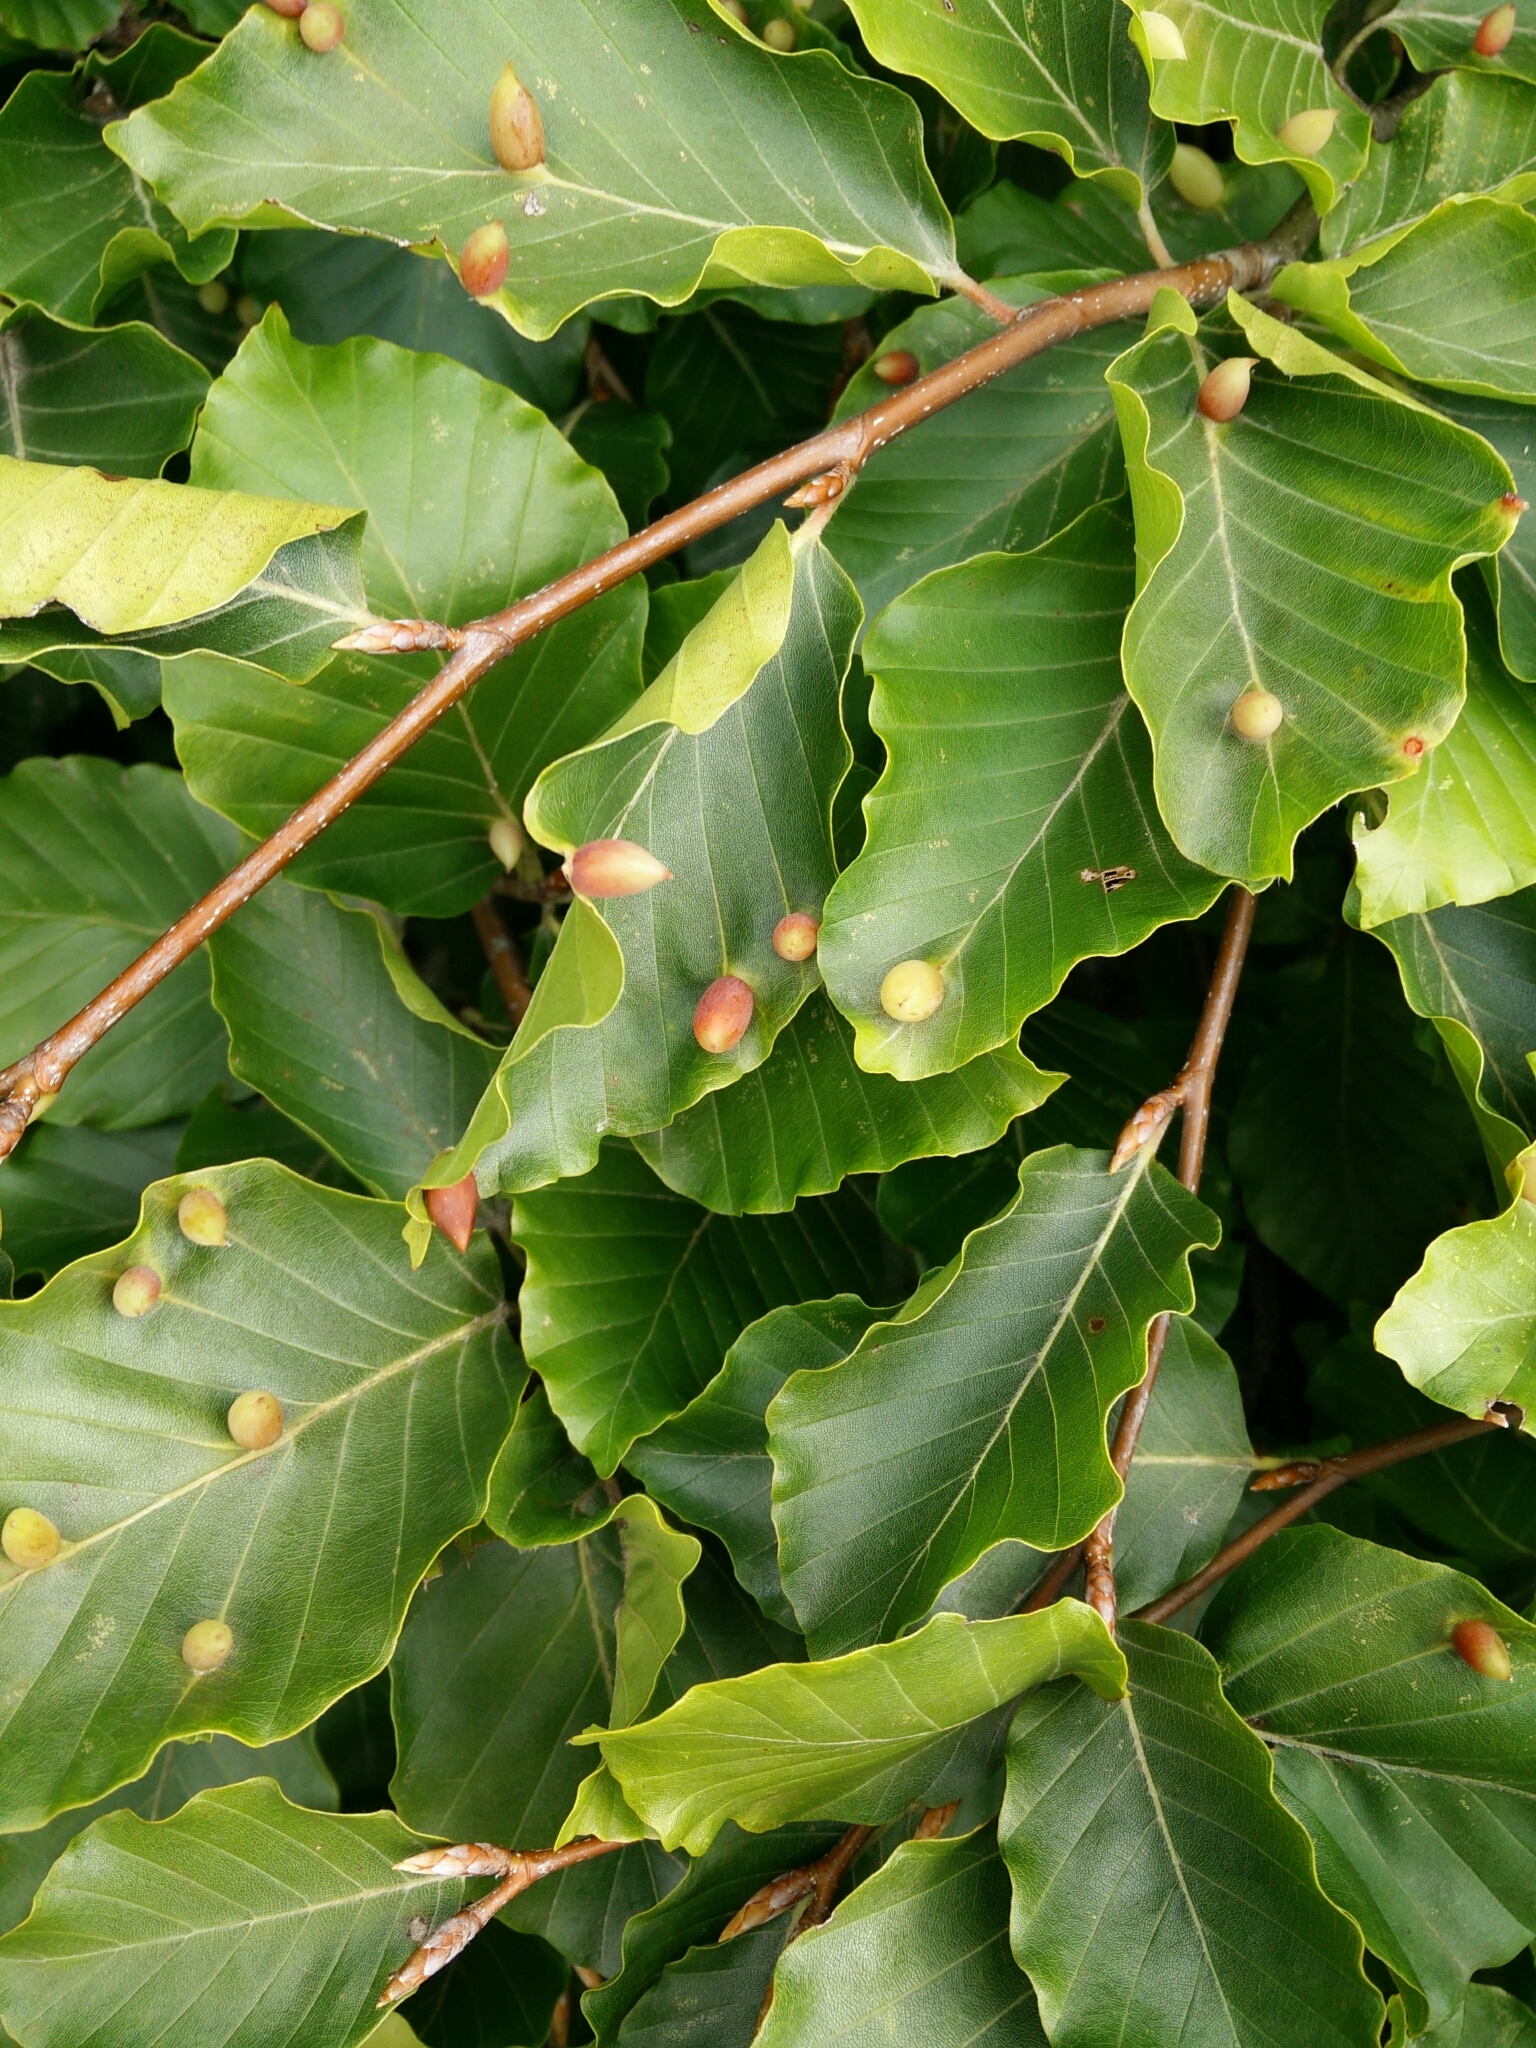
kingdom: Animalia
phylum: Arthropoda
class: Insecta
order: Diptera
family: Cecidomyiidae
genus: Mikiola
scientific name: Mikiola fagi
